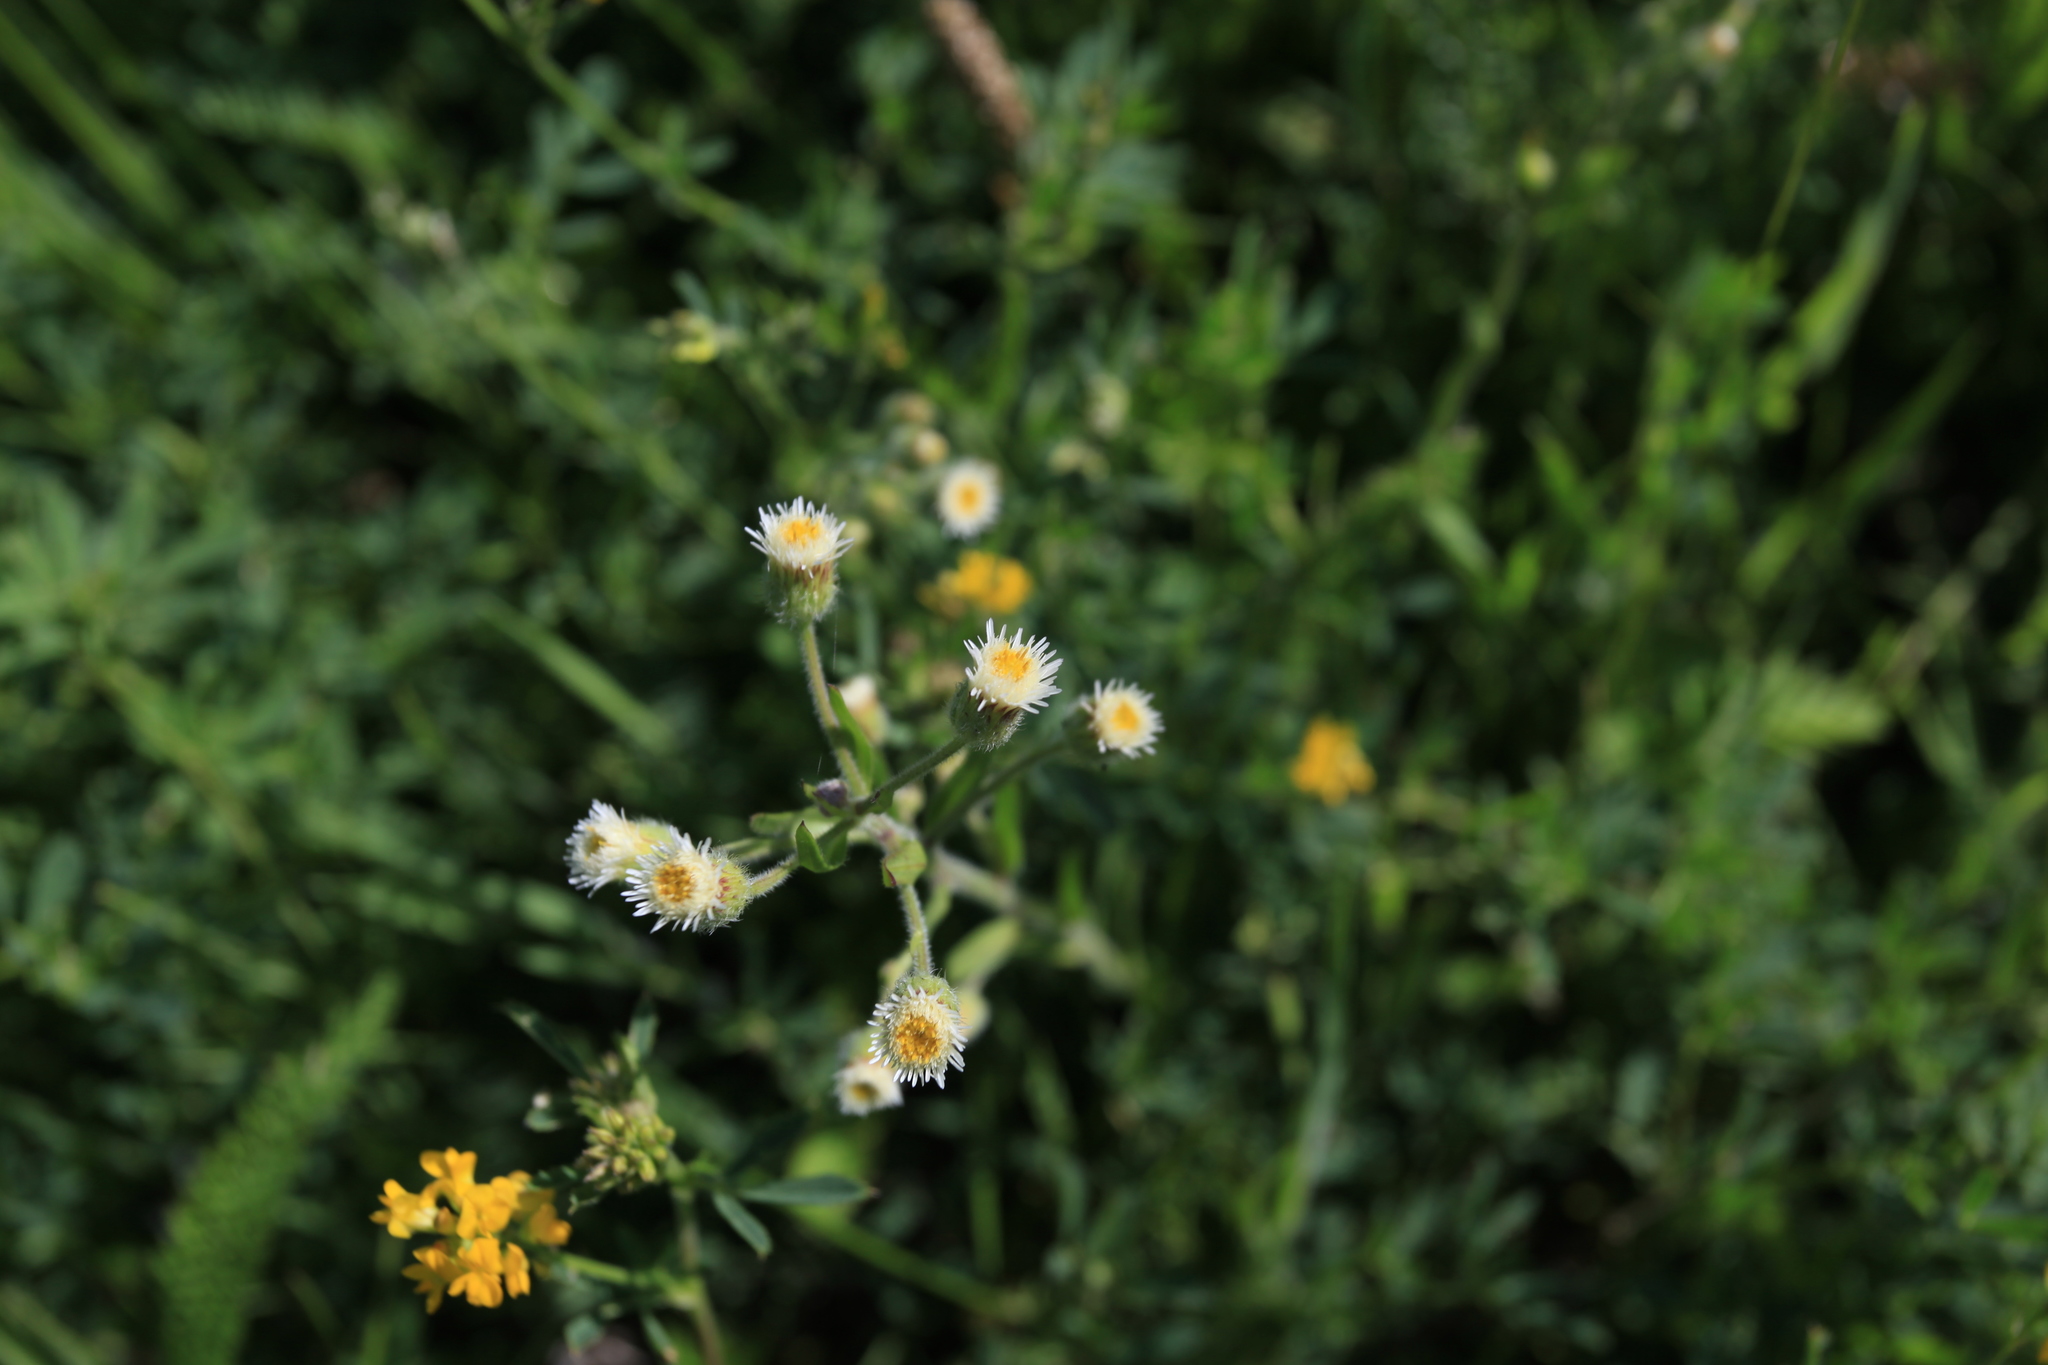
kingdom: Plantae
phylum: Tracheophyta
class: Magnoliopsida
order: Asterales
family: Asteraceae
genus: Erigeron
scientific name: Erigeron acris
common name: Blue fleabane
